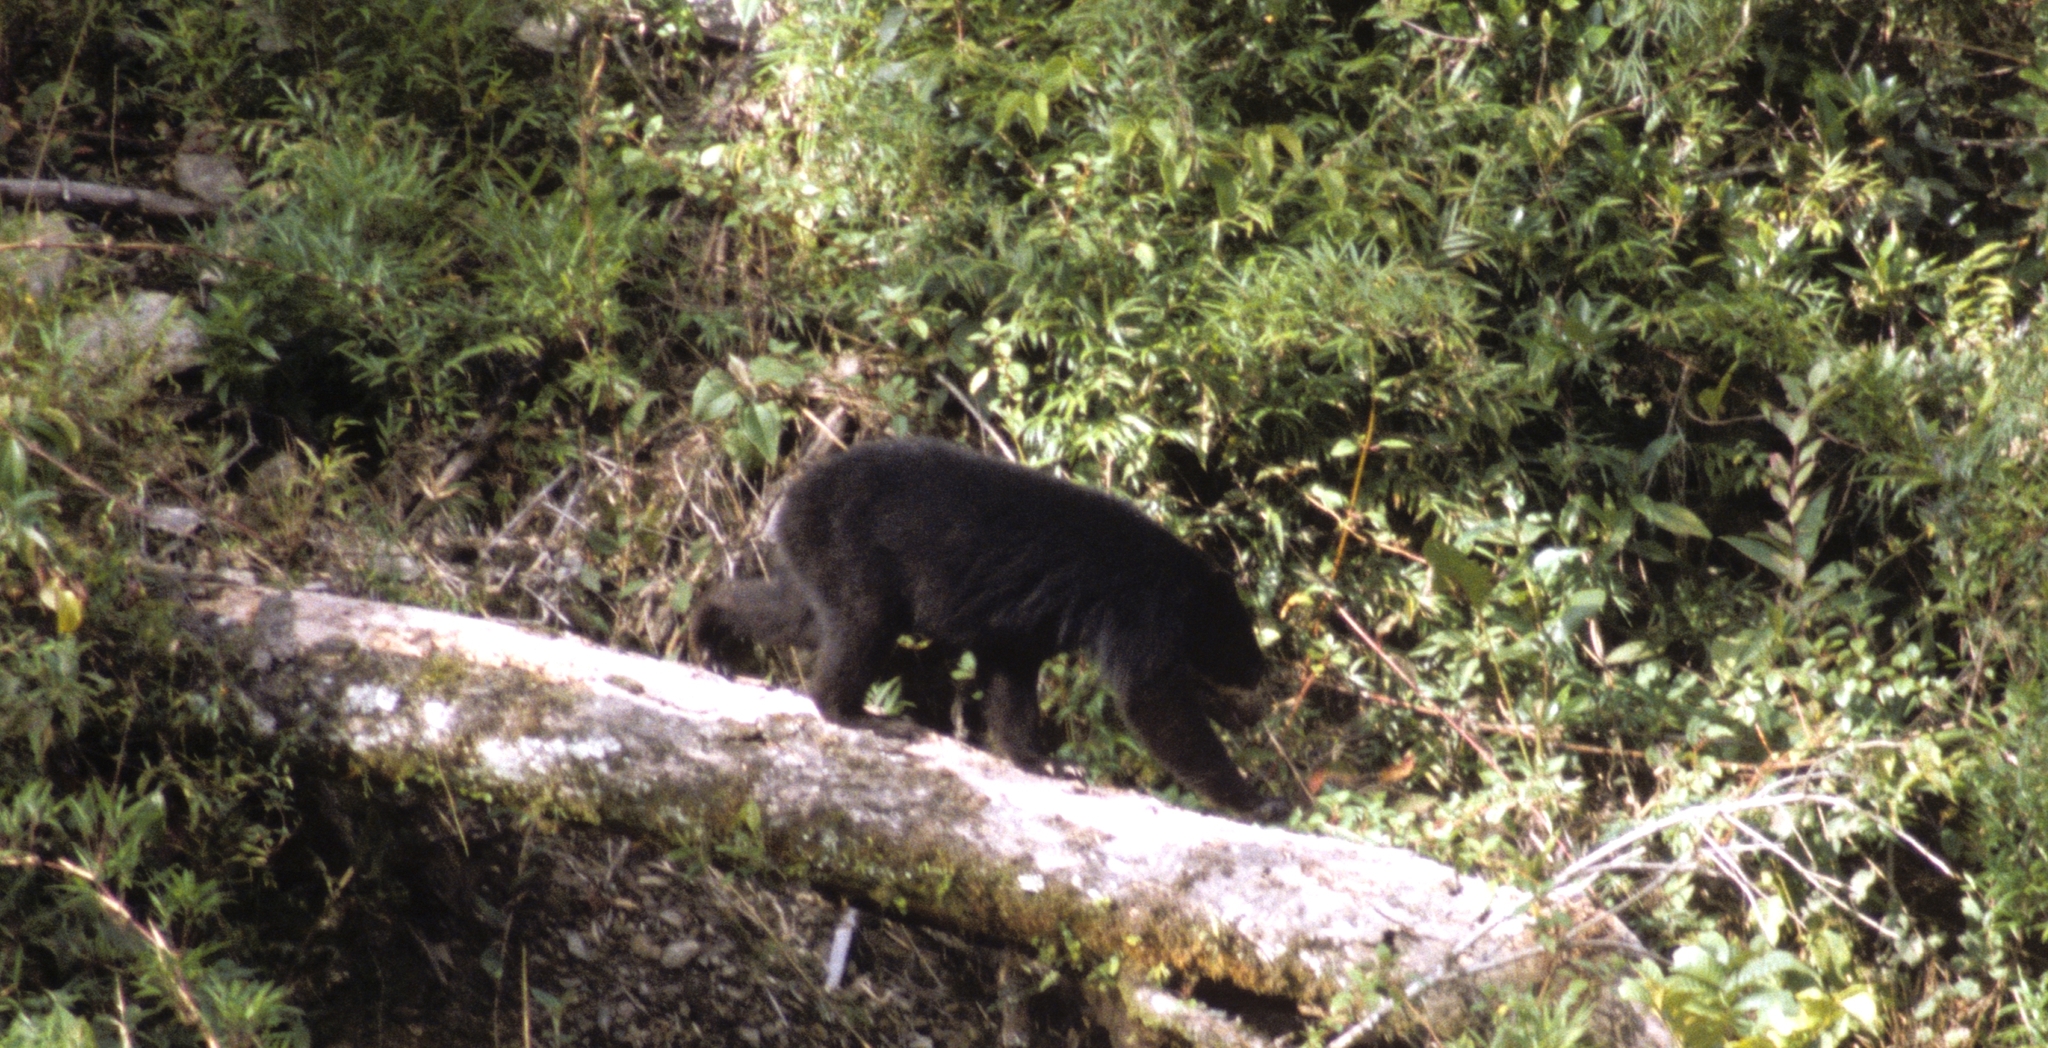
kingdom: Animalia
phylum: Chordata
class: Mammalia
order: Carnivora
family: Ursidae
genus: Tremarctos
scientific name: Tremarctos ornatus
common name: Spectacled bear
